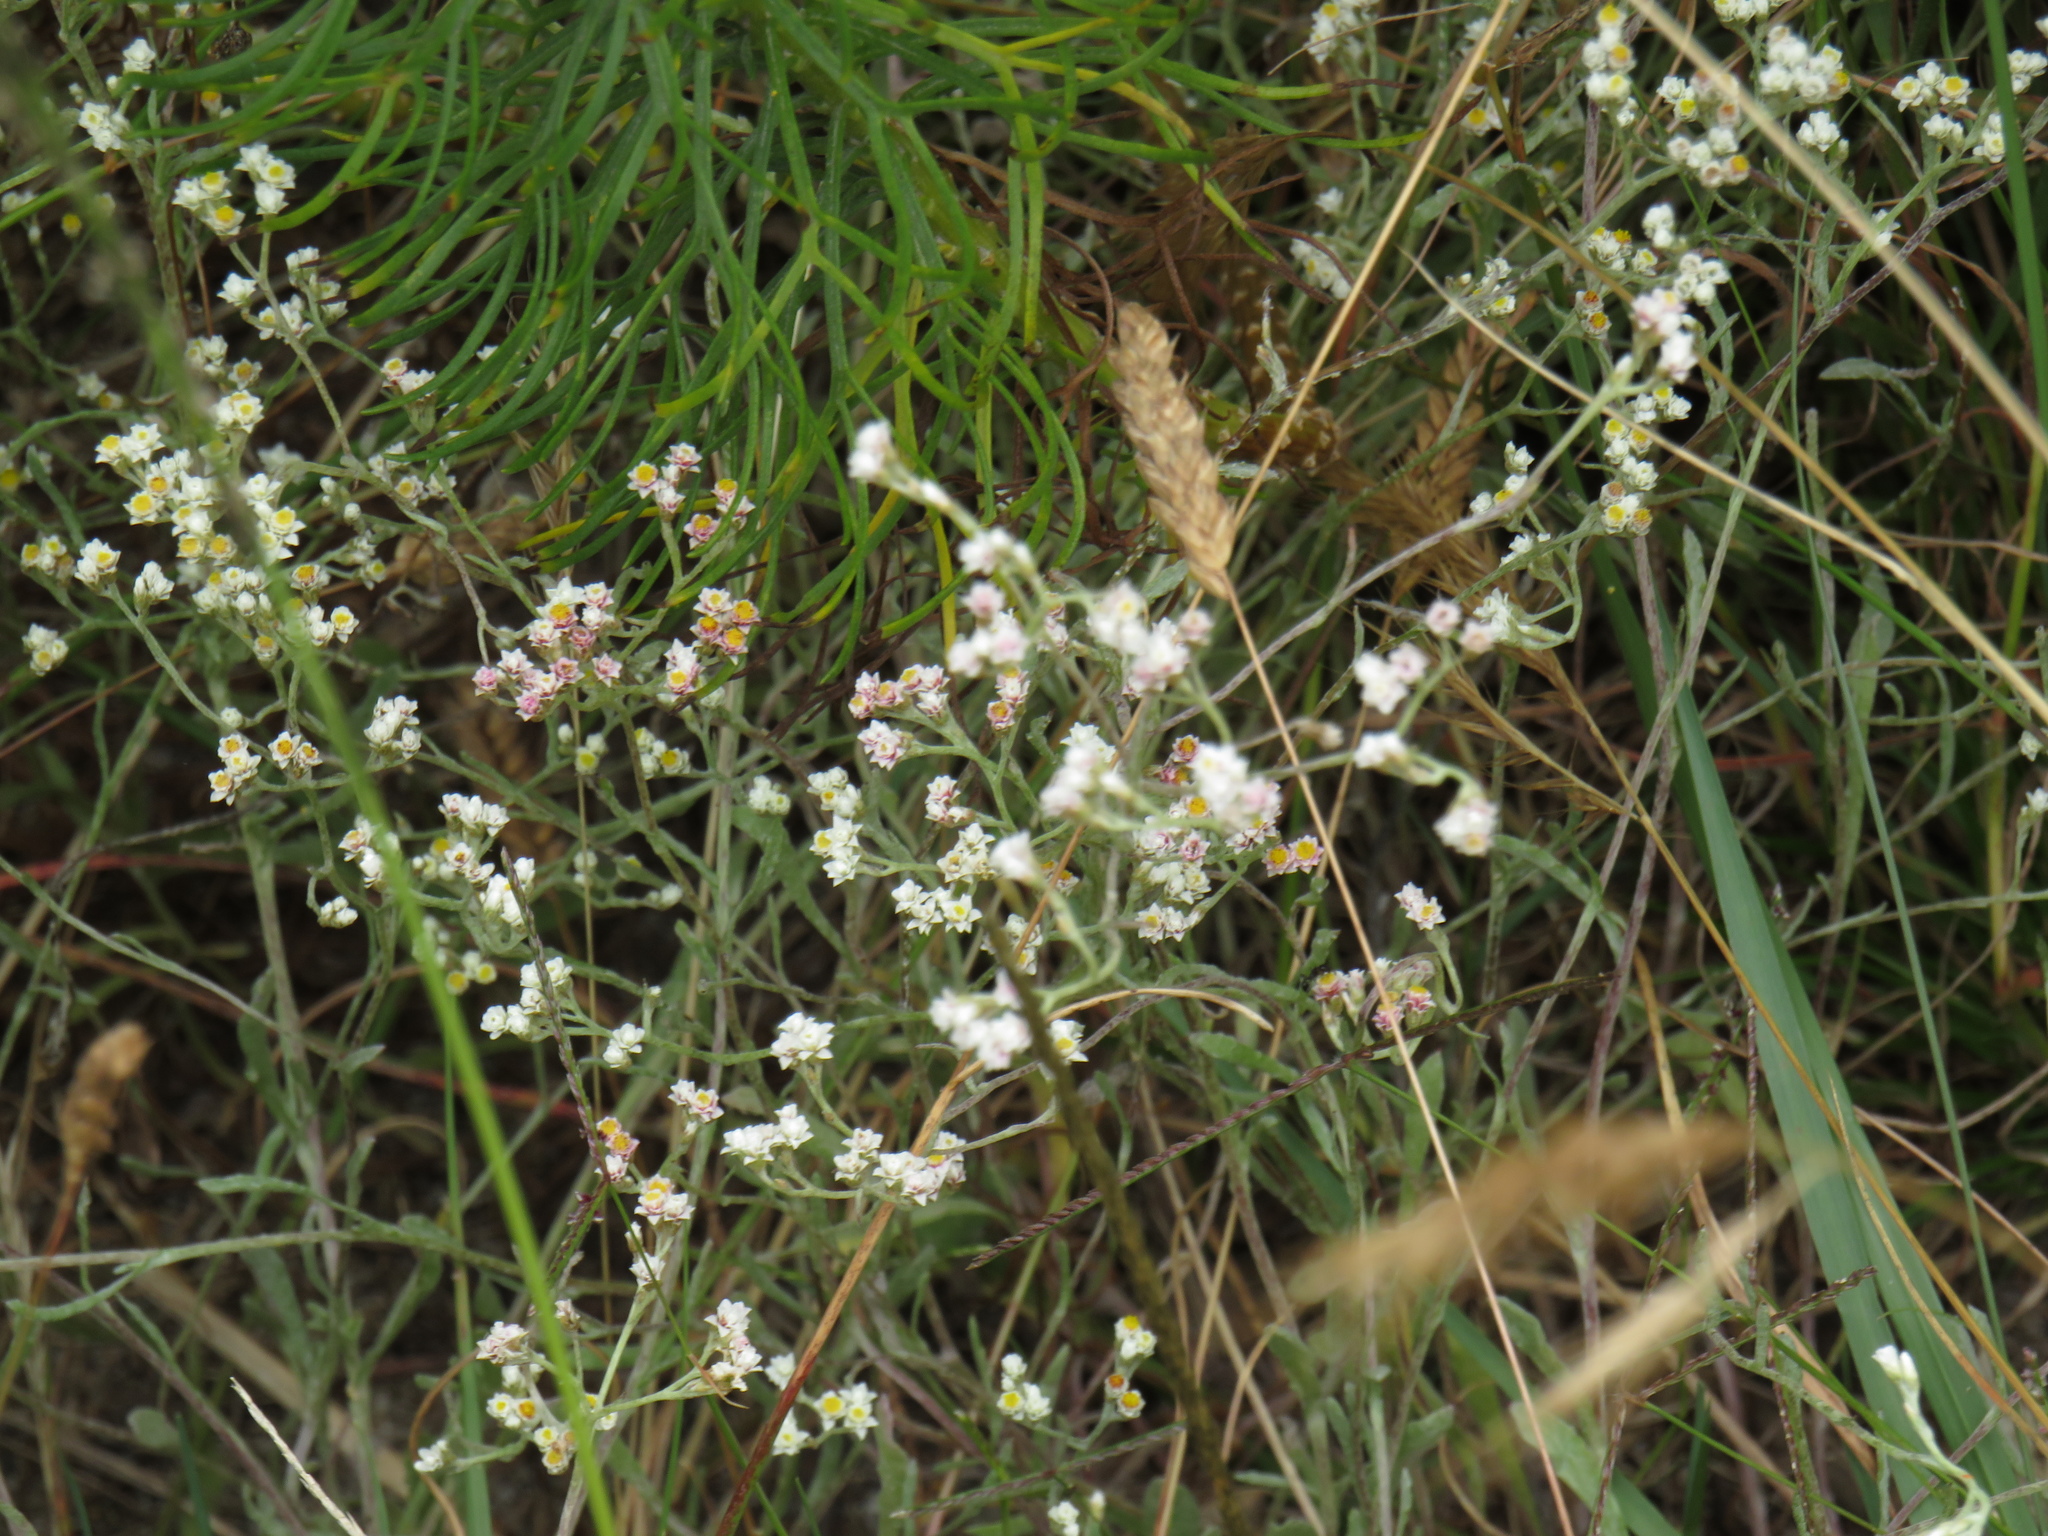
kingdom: Plantae
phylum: Tracheophyta
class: Magnoliopsida
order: Asterales
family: Asteraceae
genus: Helichrysum
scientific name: Helichrysum indicum
